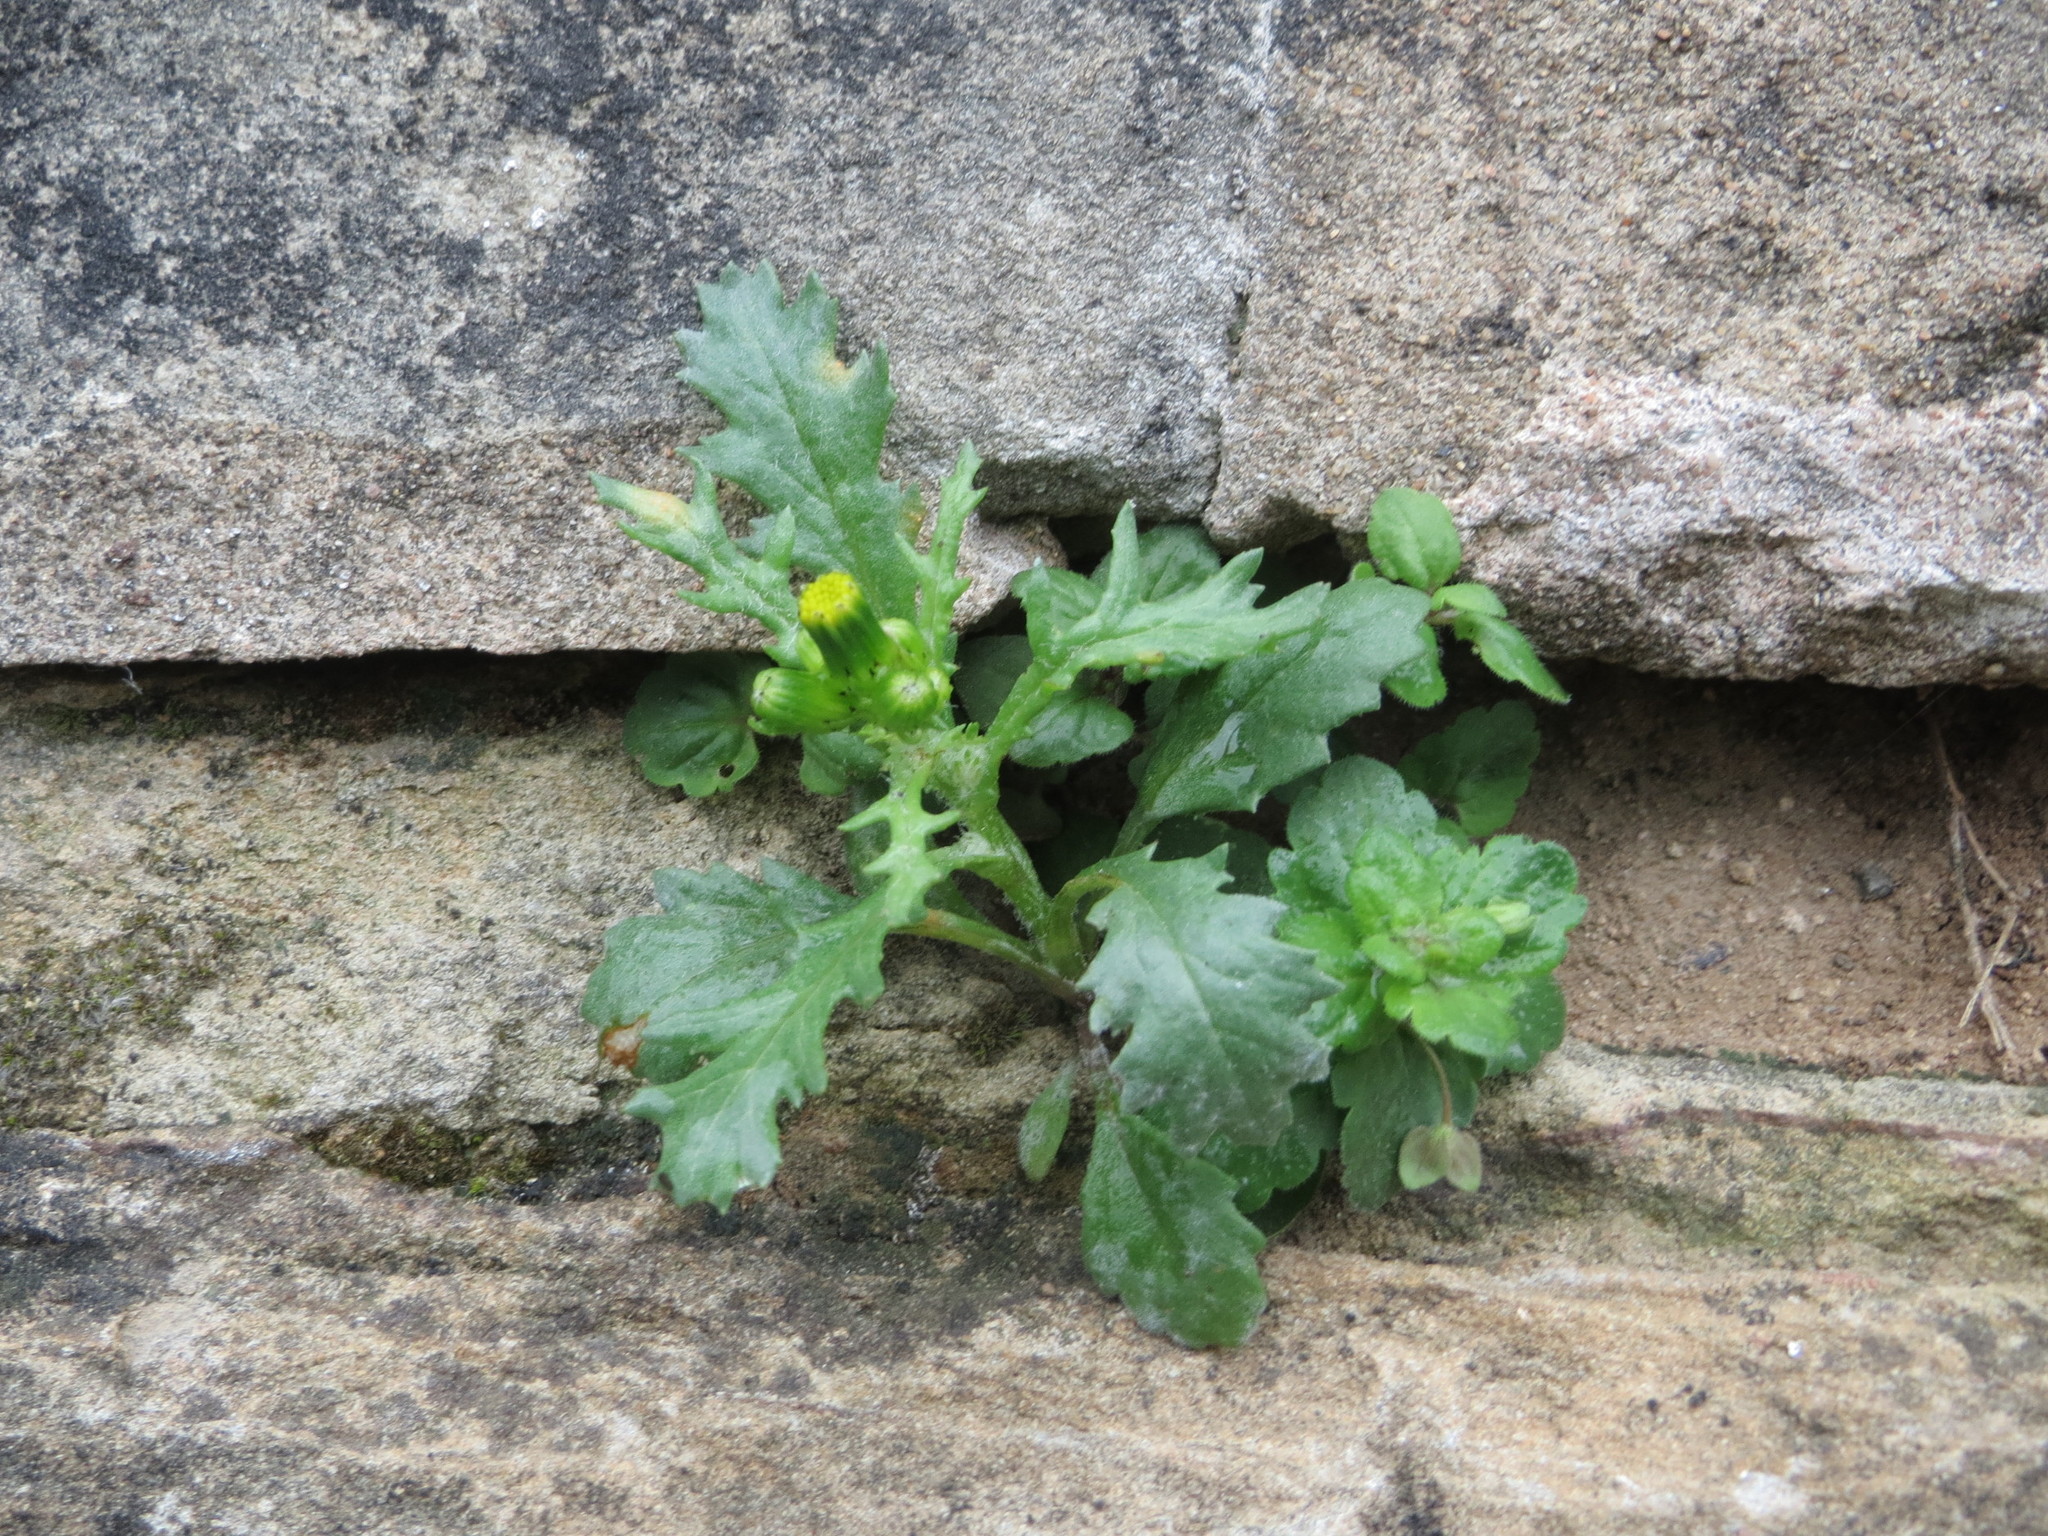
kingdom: Plantae
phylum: Tracheophyta
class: Magnoliopsida
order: Asterales
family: Asteraceae
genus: Senecio
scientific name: Senecio vulgaris
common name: Old-man-in-the-spring
